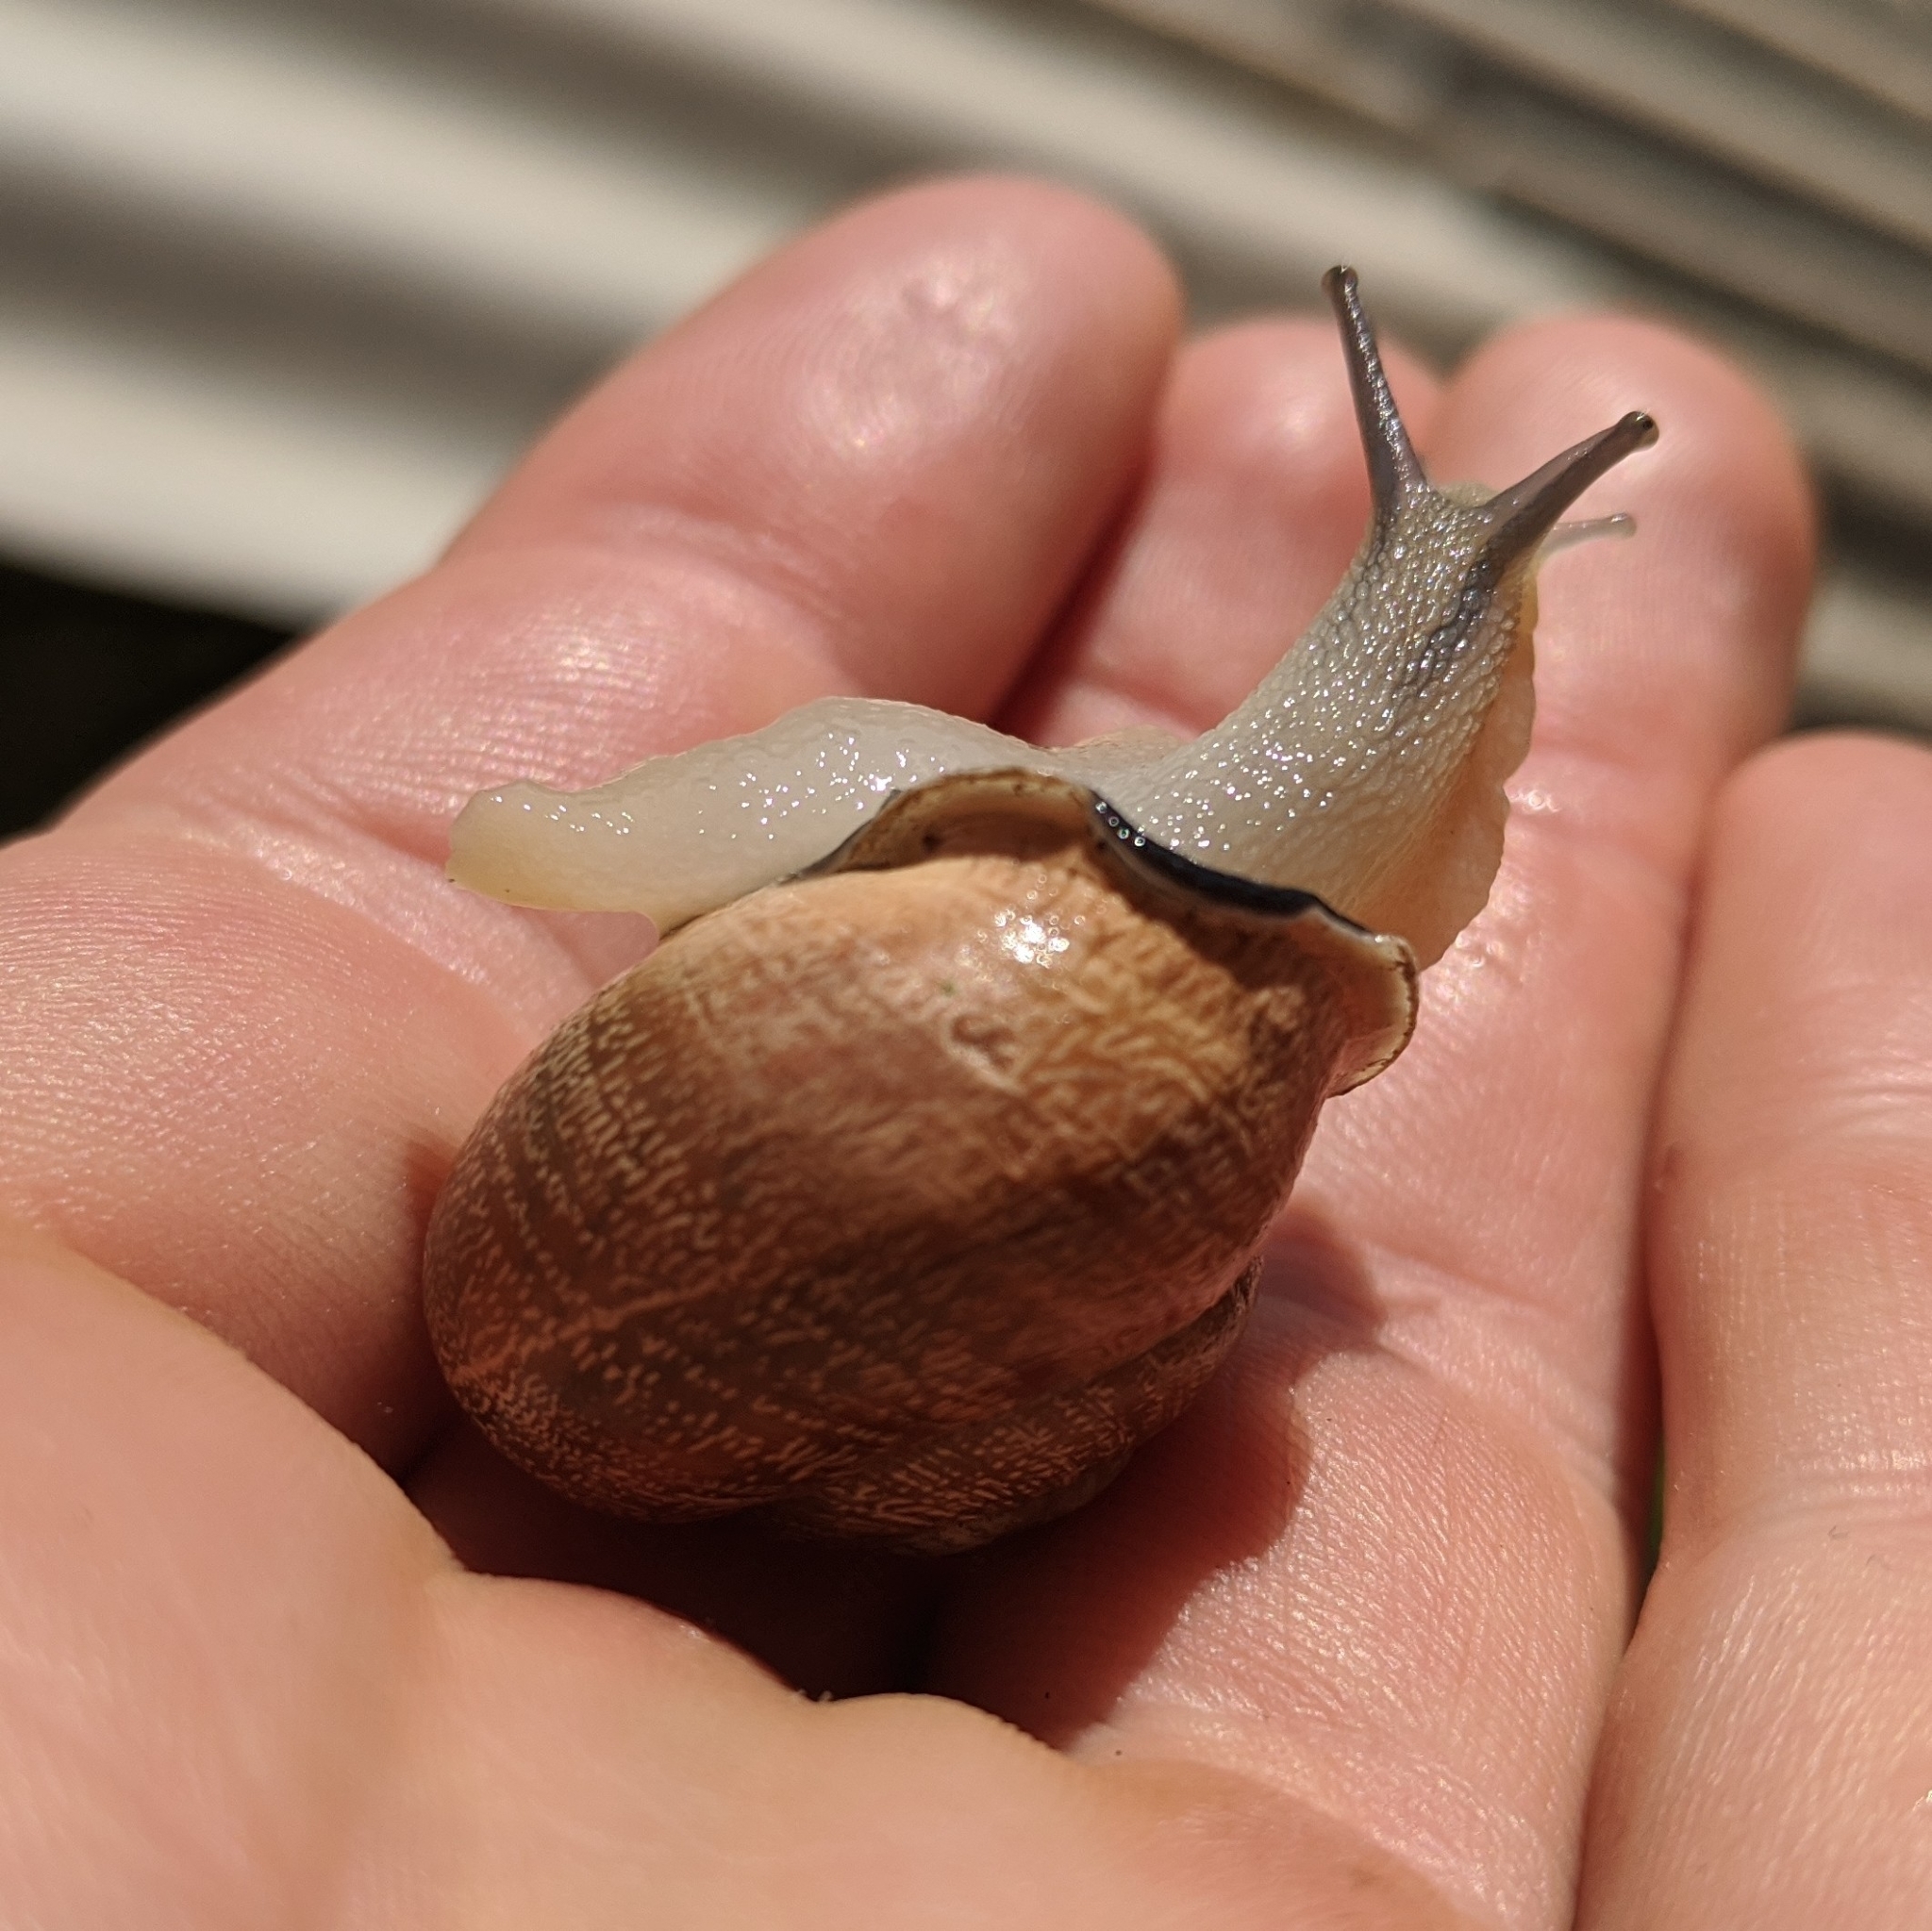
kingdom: Animalia
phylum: Mollusca
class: Gastropoda
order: Stylommatophora
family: Helicidae
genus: Otala
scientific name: Otala punctata
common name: Milk snail
